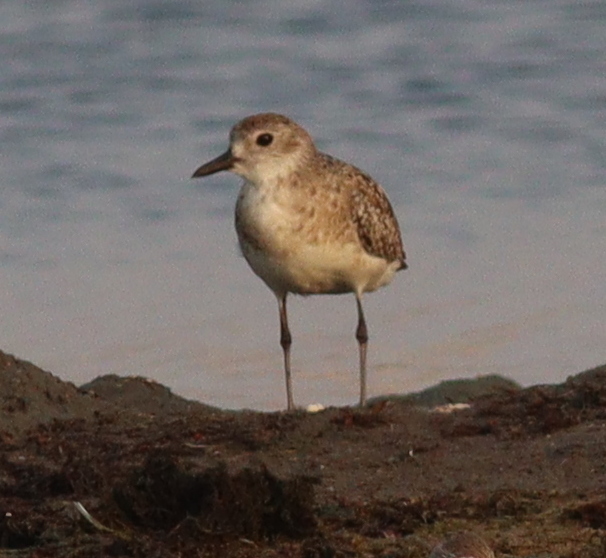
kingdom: Animalia
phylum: Chordata
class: Aves
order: Charadriiformes
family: Charadriidae
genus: Pluvialis
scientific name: Pluvialis squatarola
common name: Grey plover
